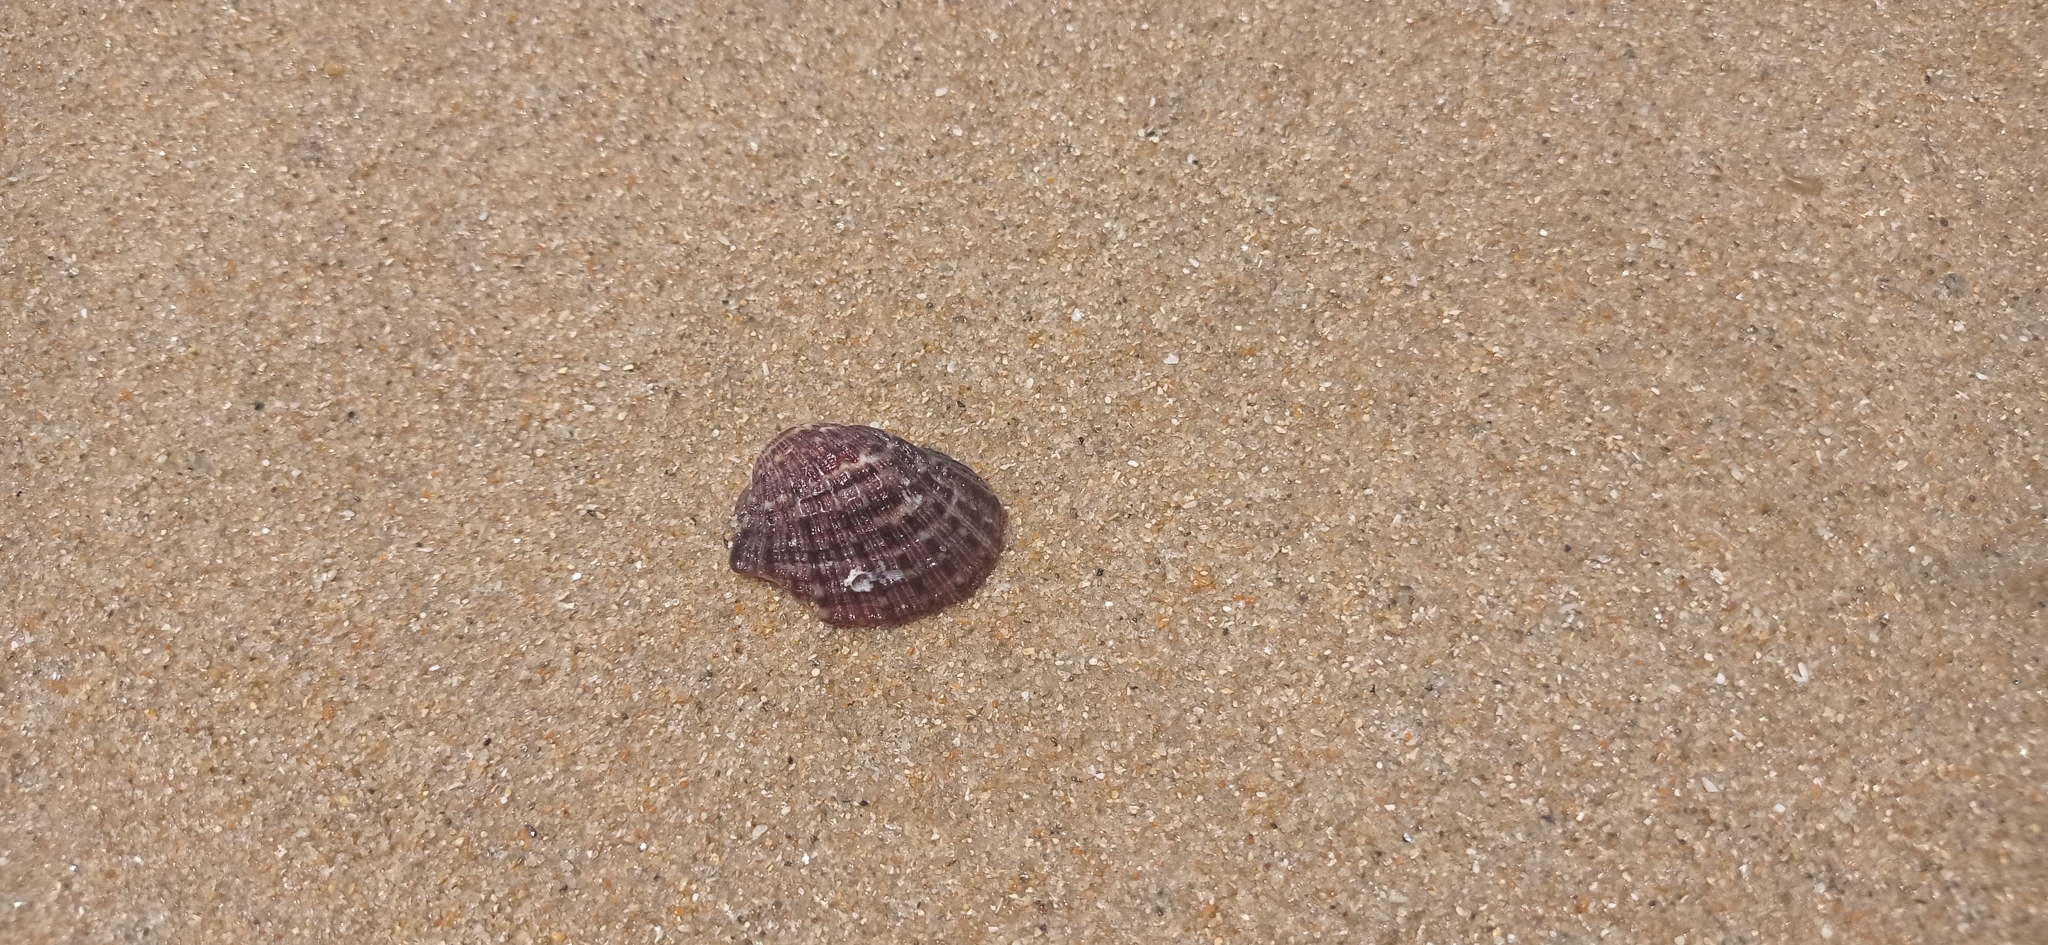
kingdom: Animalia
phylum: Mollusca
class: Gastropoda
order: Neogastropoda
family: Muricidae
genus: Concholepas
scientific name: Concholepas concholepas
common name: Chilean abalone
